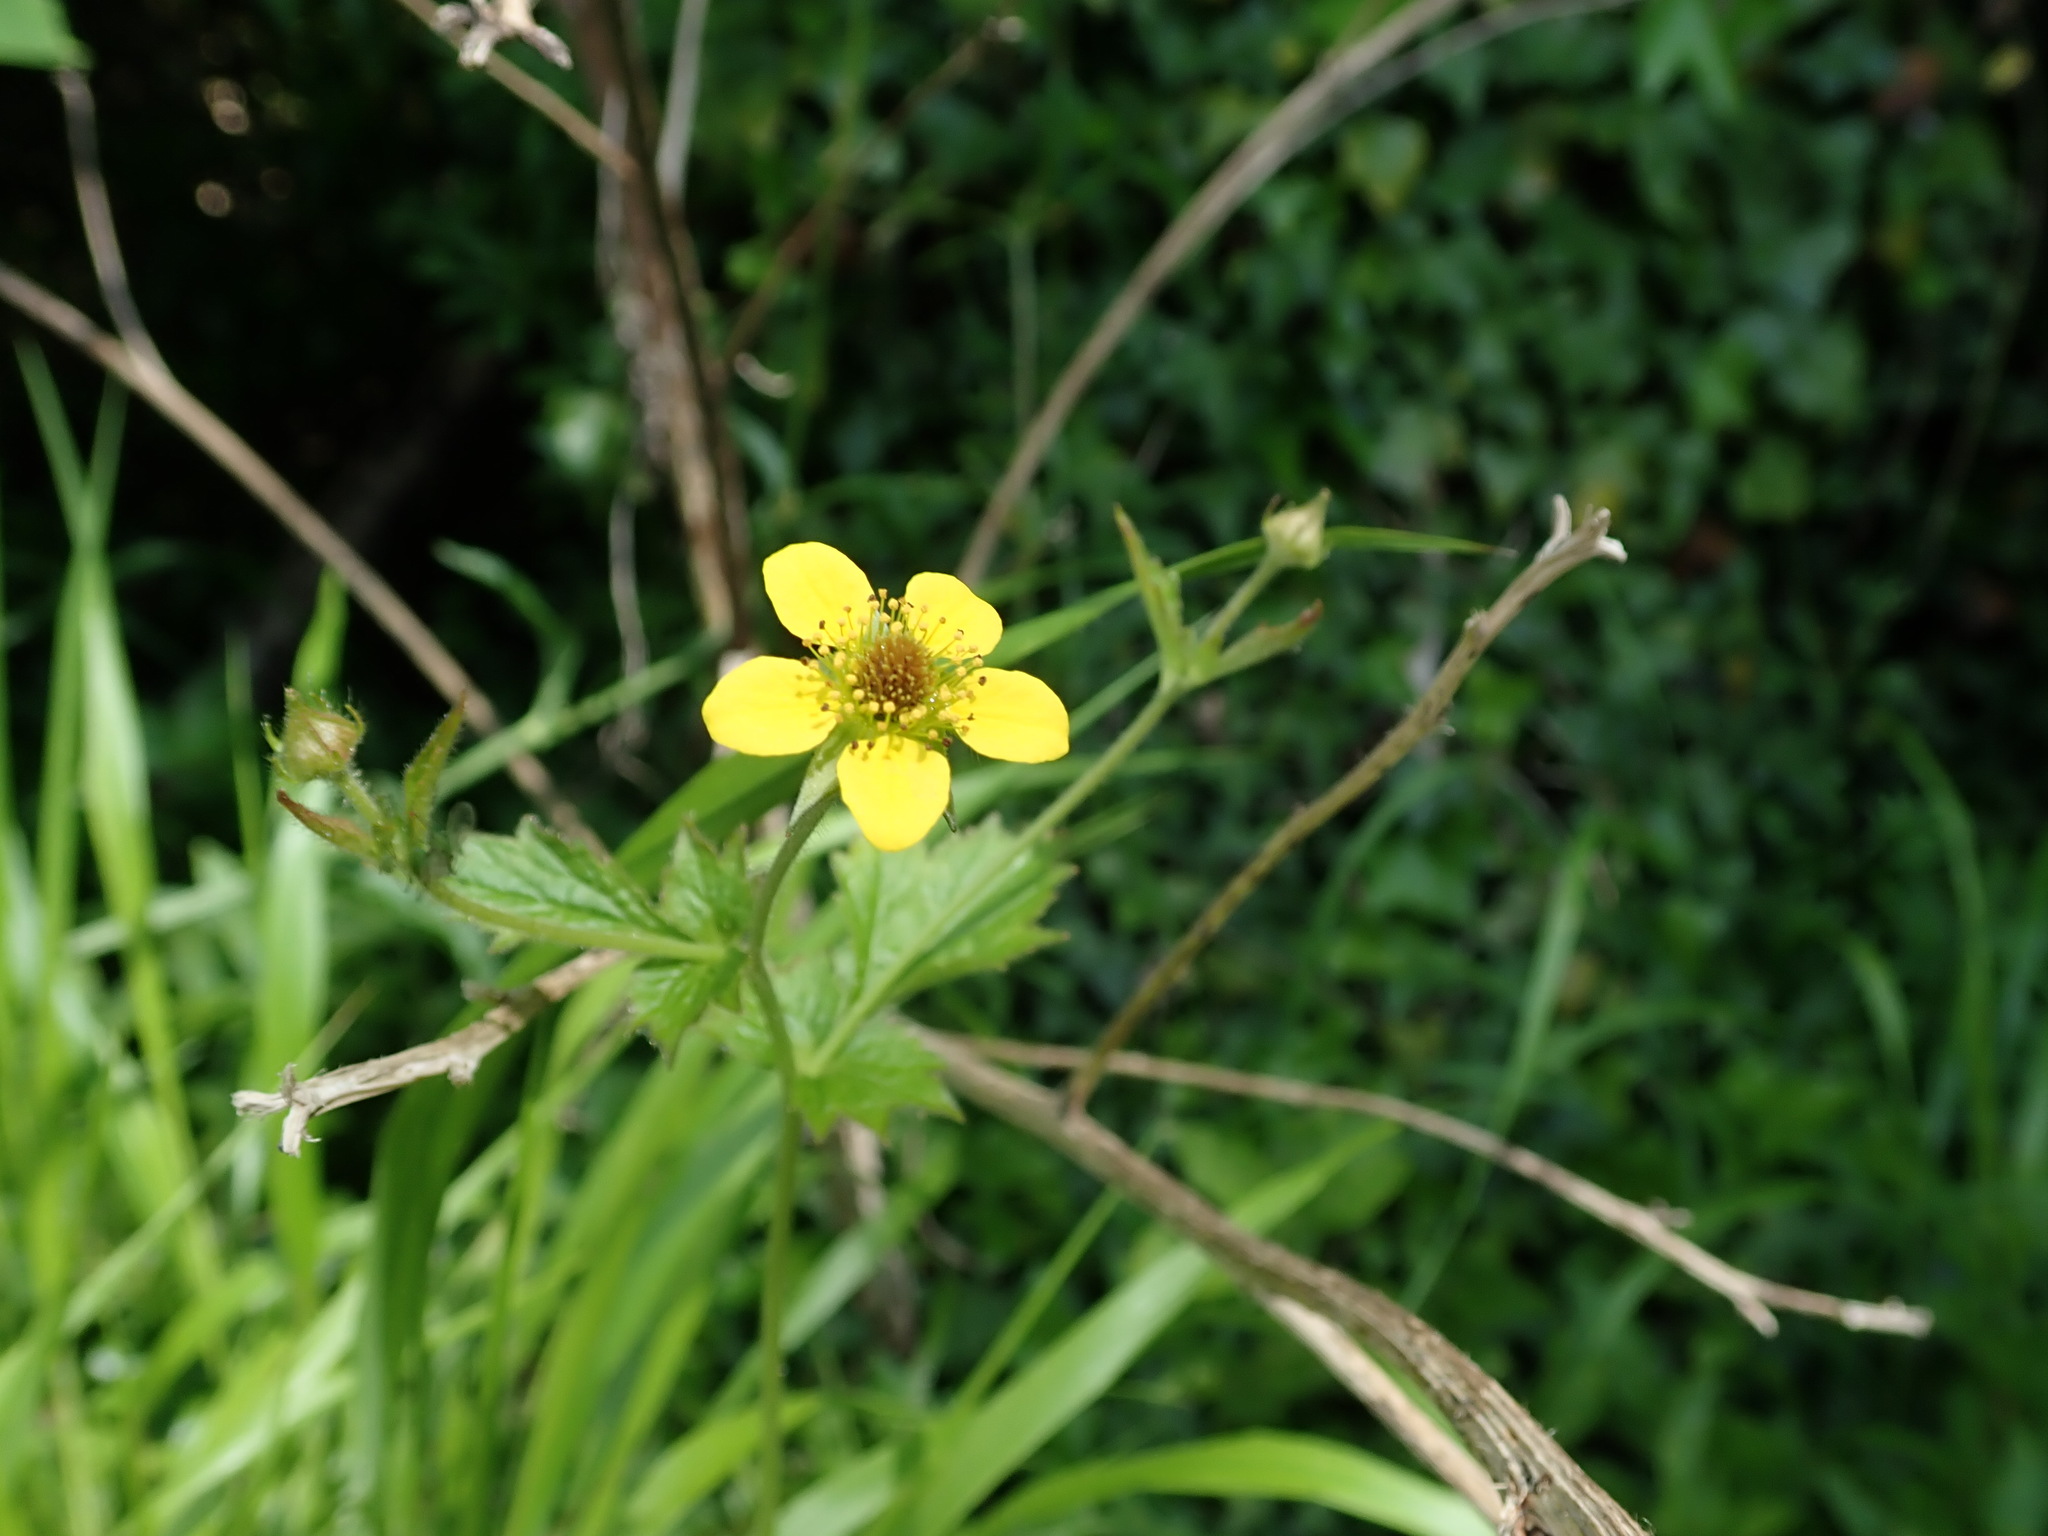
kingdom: Plantae
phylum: Tracheophyta
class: Magnoliopsida
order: Rosales
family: Rosaceae
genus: Geum
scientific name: Geum urbanum
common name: Wood avens
